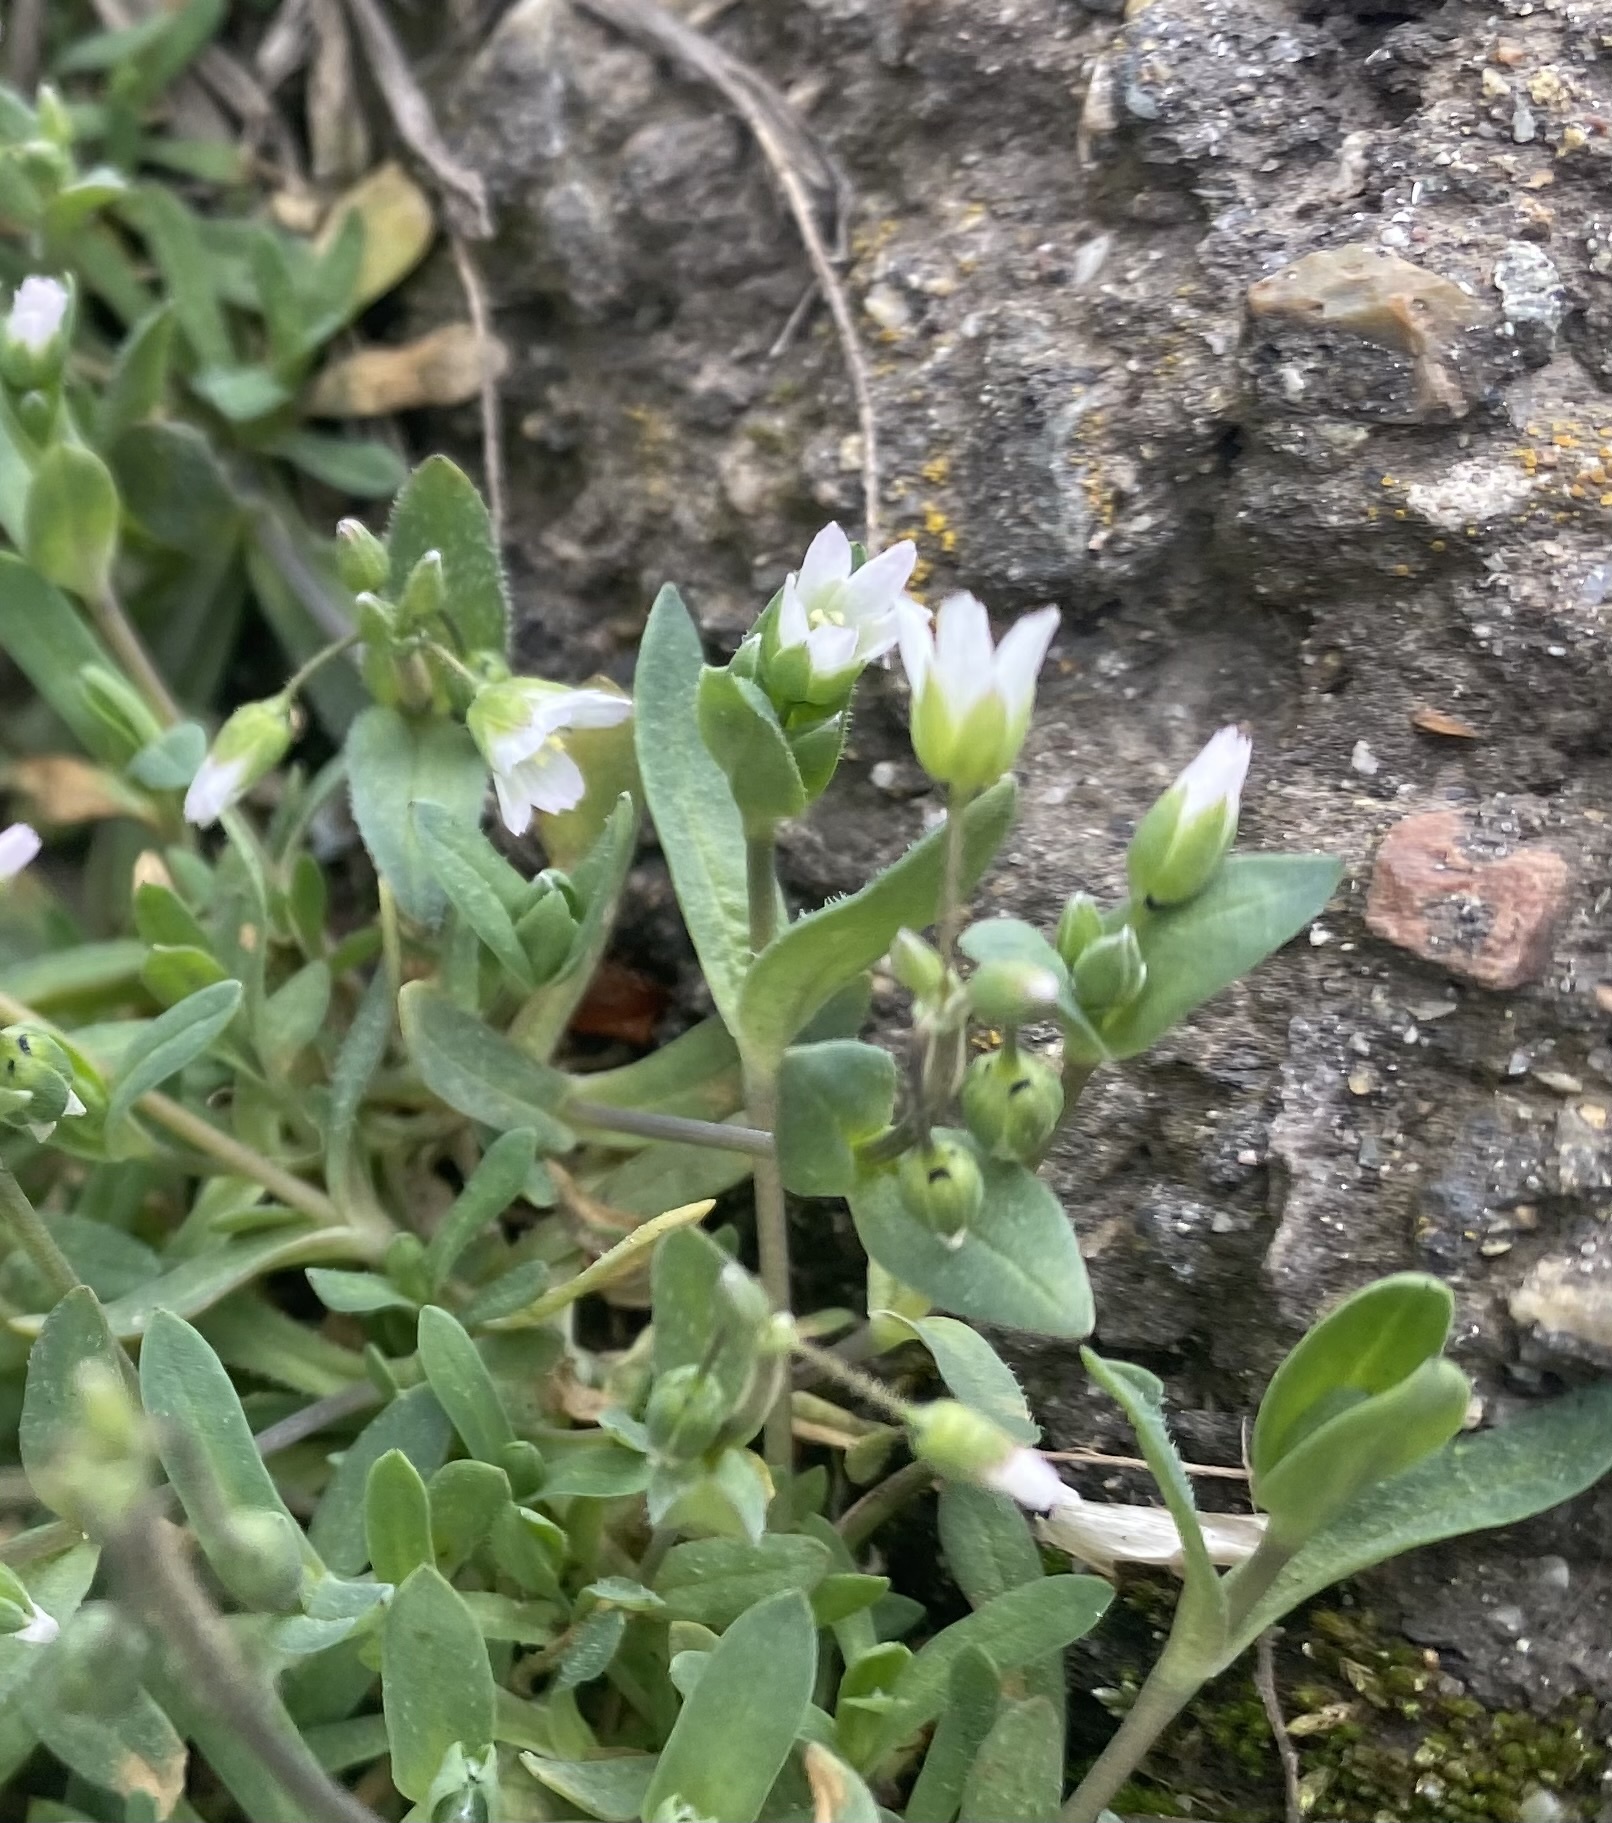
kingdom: Plantae
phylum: Tracheophyta
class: Magnoliopsida
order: Caryophyllales
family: Caryophyllaceae
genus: Holosteum
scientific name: Holosteum umbellatum
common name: Jagged chickweed
